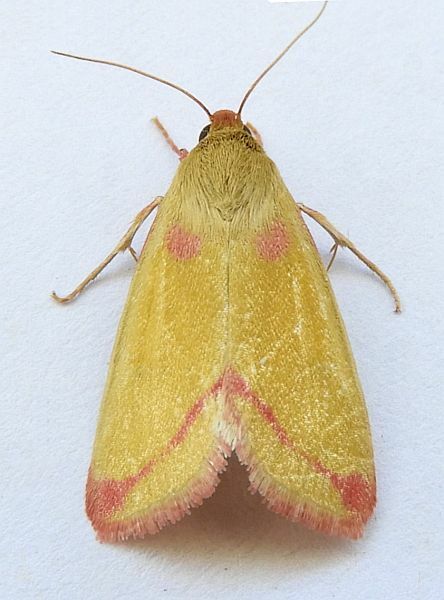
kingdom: Animalia
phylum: Arthropoda
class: Insecta
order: Lepidoptera
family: Noctuidae
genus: Heliocheilus
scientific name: Heliocheilus toralis
